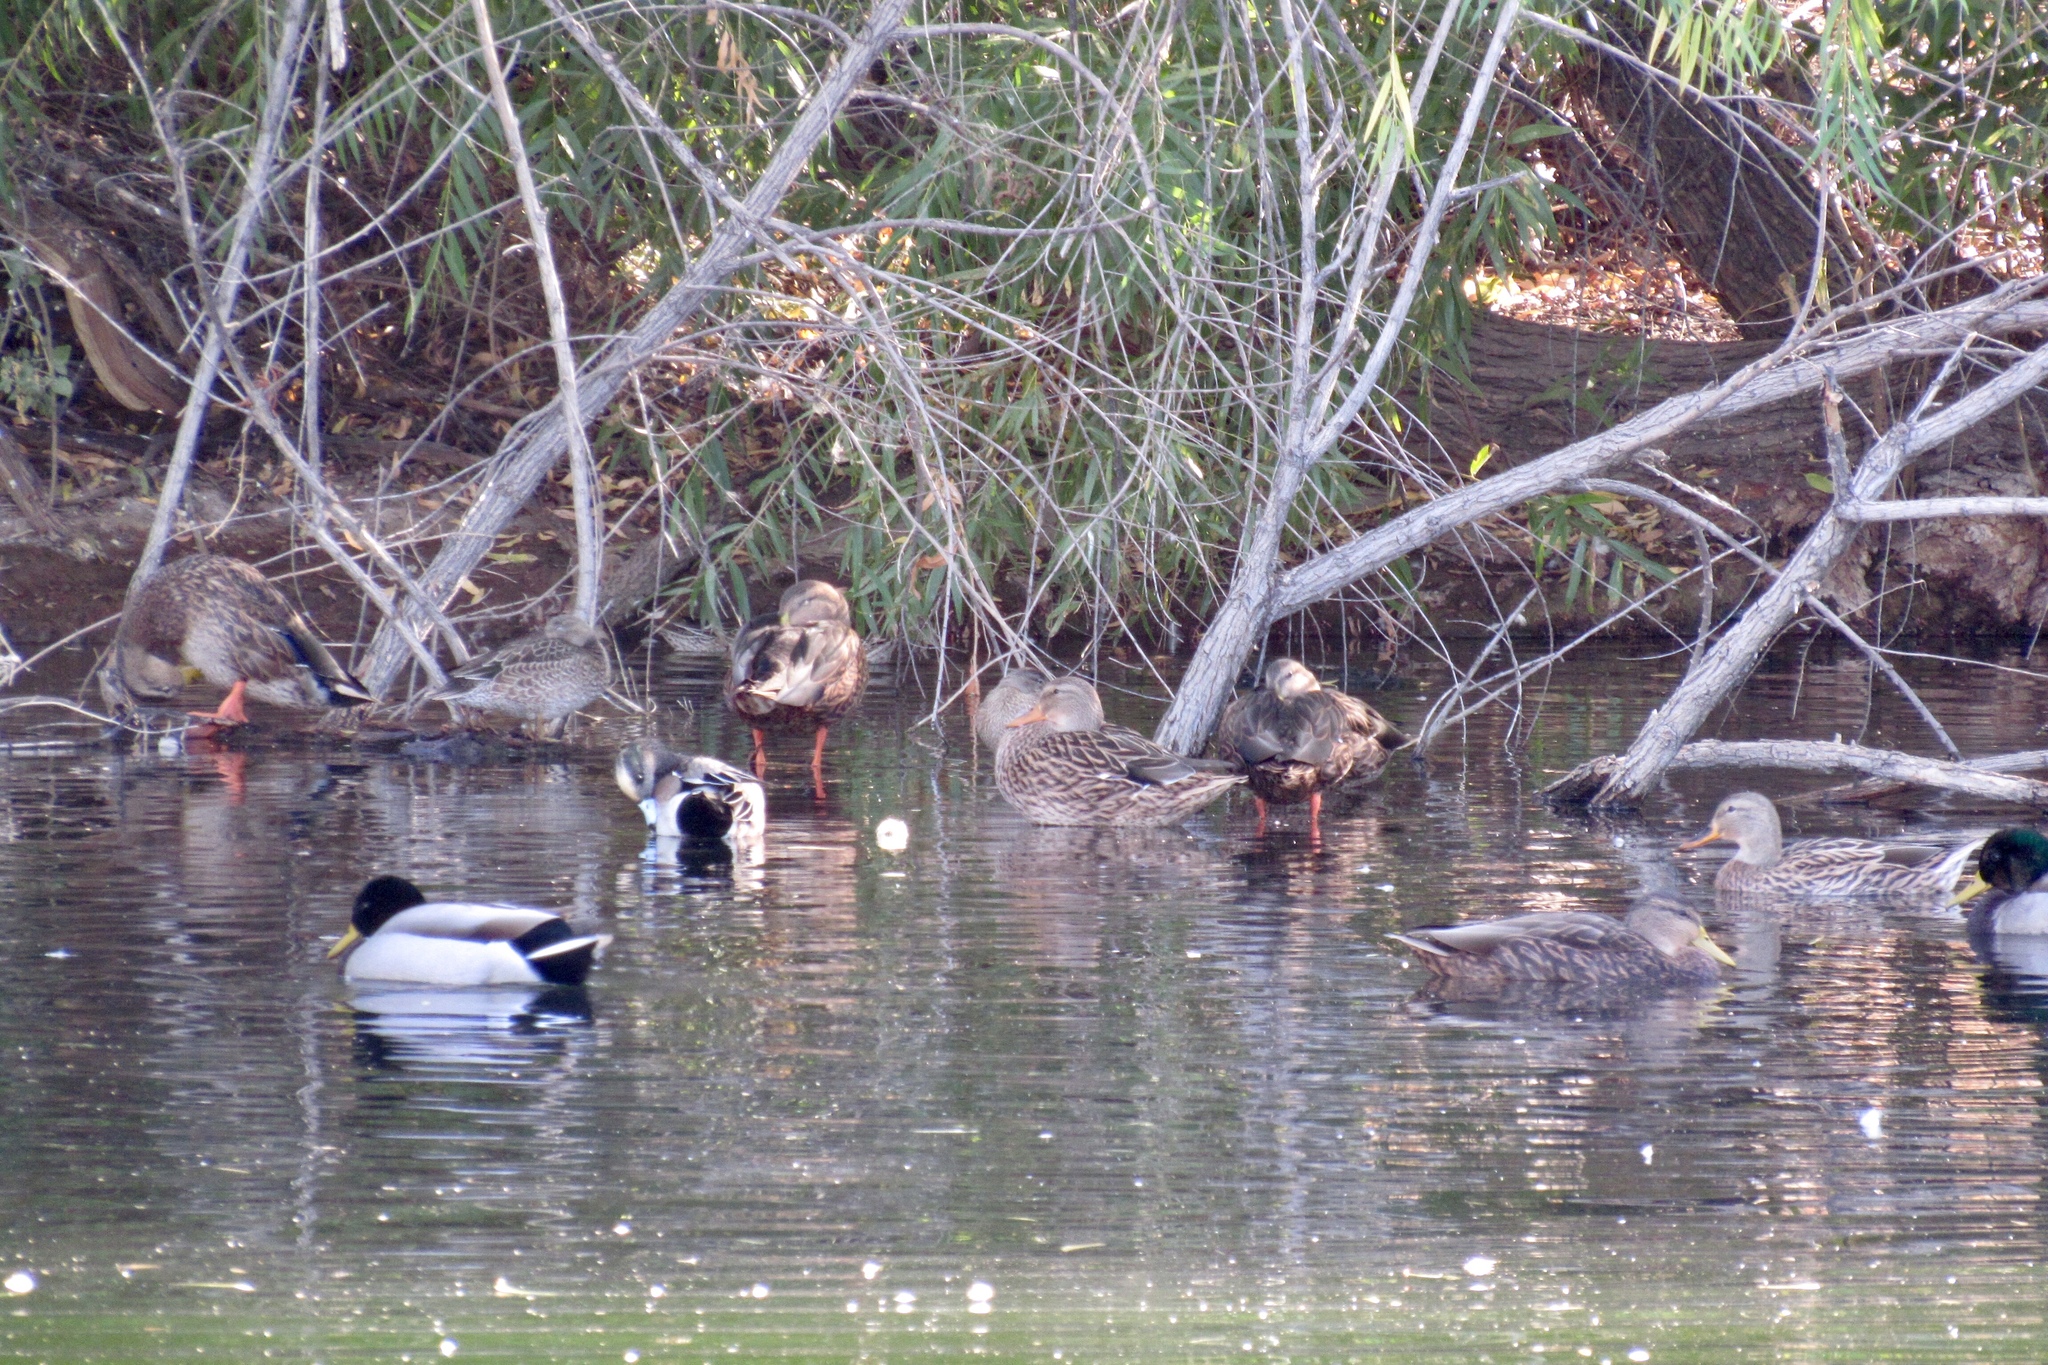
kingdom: Animalia
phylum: Chordata
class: Aves
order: Anseriformes
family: Anatidae
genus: Anas
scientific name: Anas platyrhynchos
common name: Mallard
